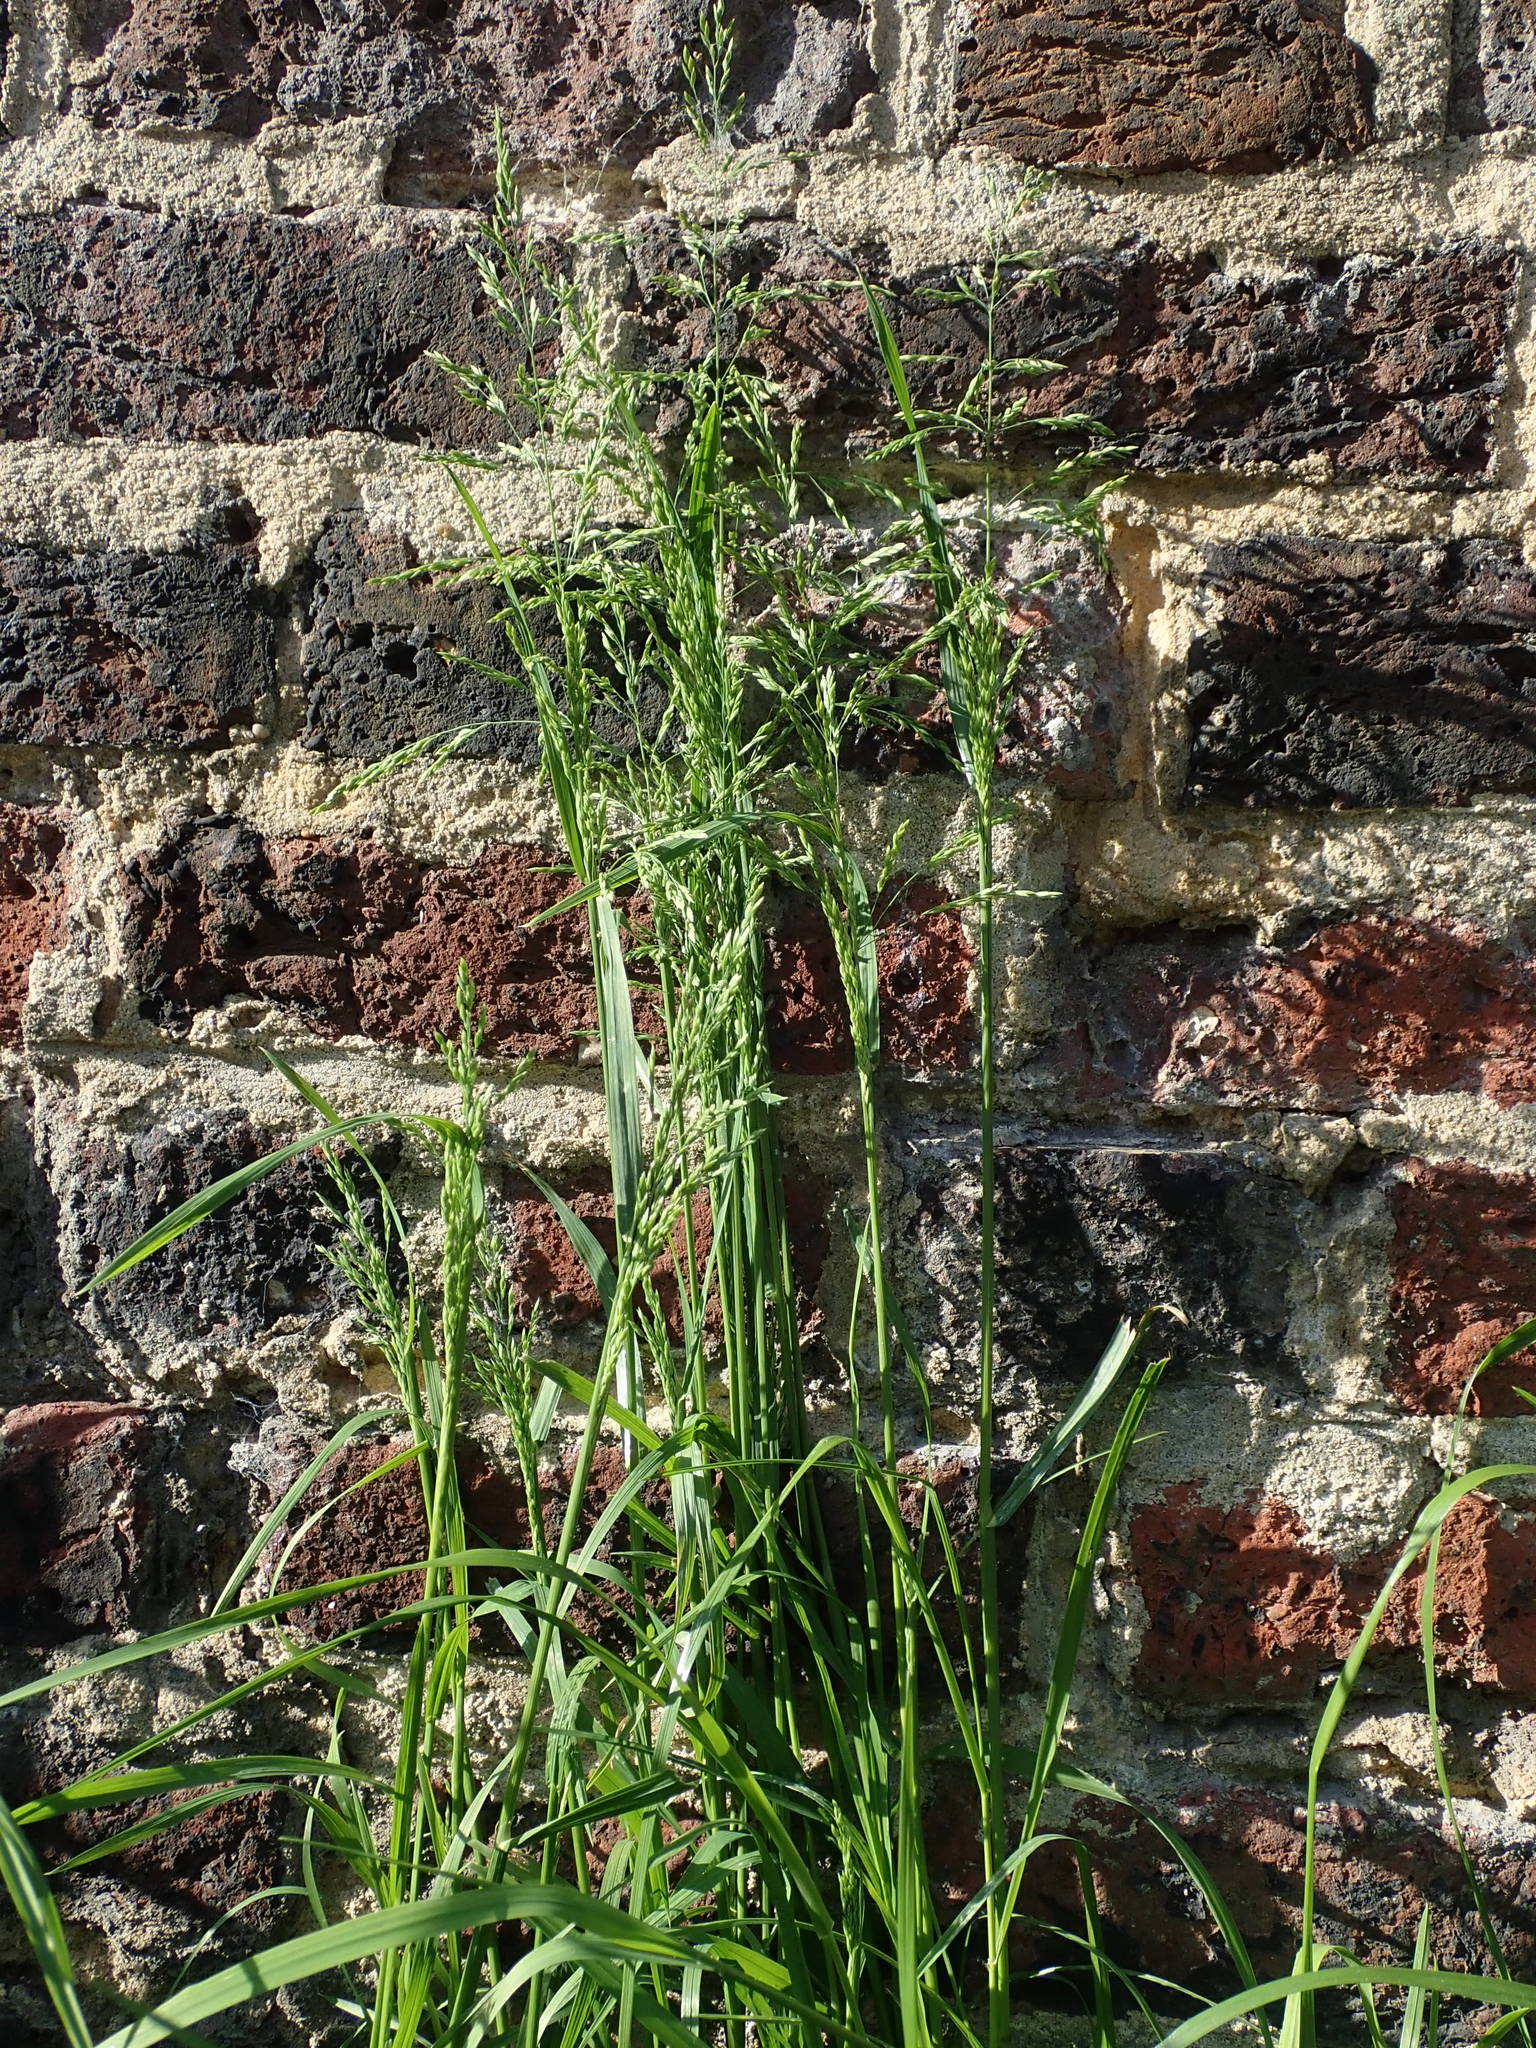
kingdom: Plantae
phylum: Tracheophyta
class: Liliopsida
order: Poales
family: Poaceae
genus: Poa
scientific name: Poa trivialis
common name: Rough bluegrass
